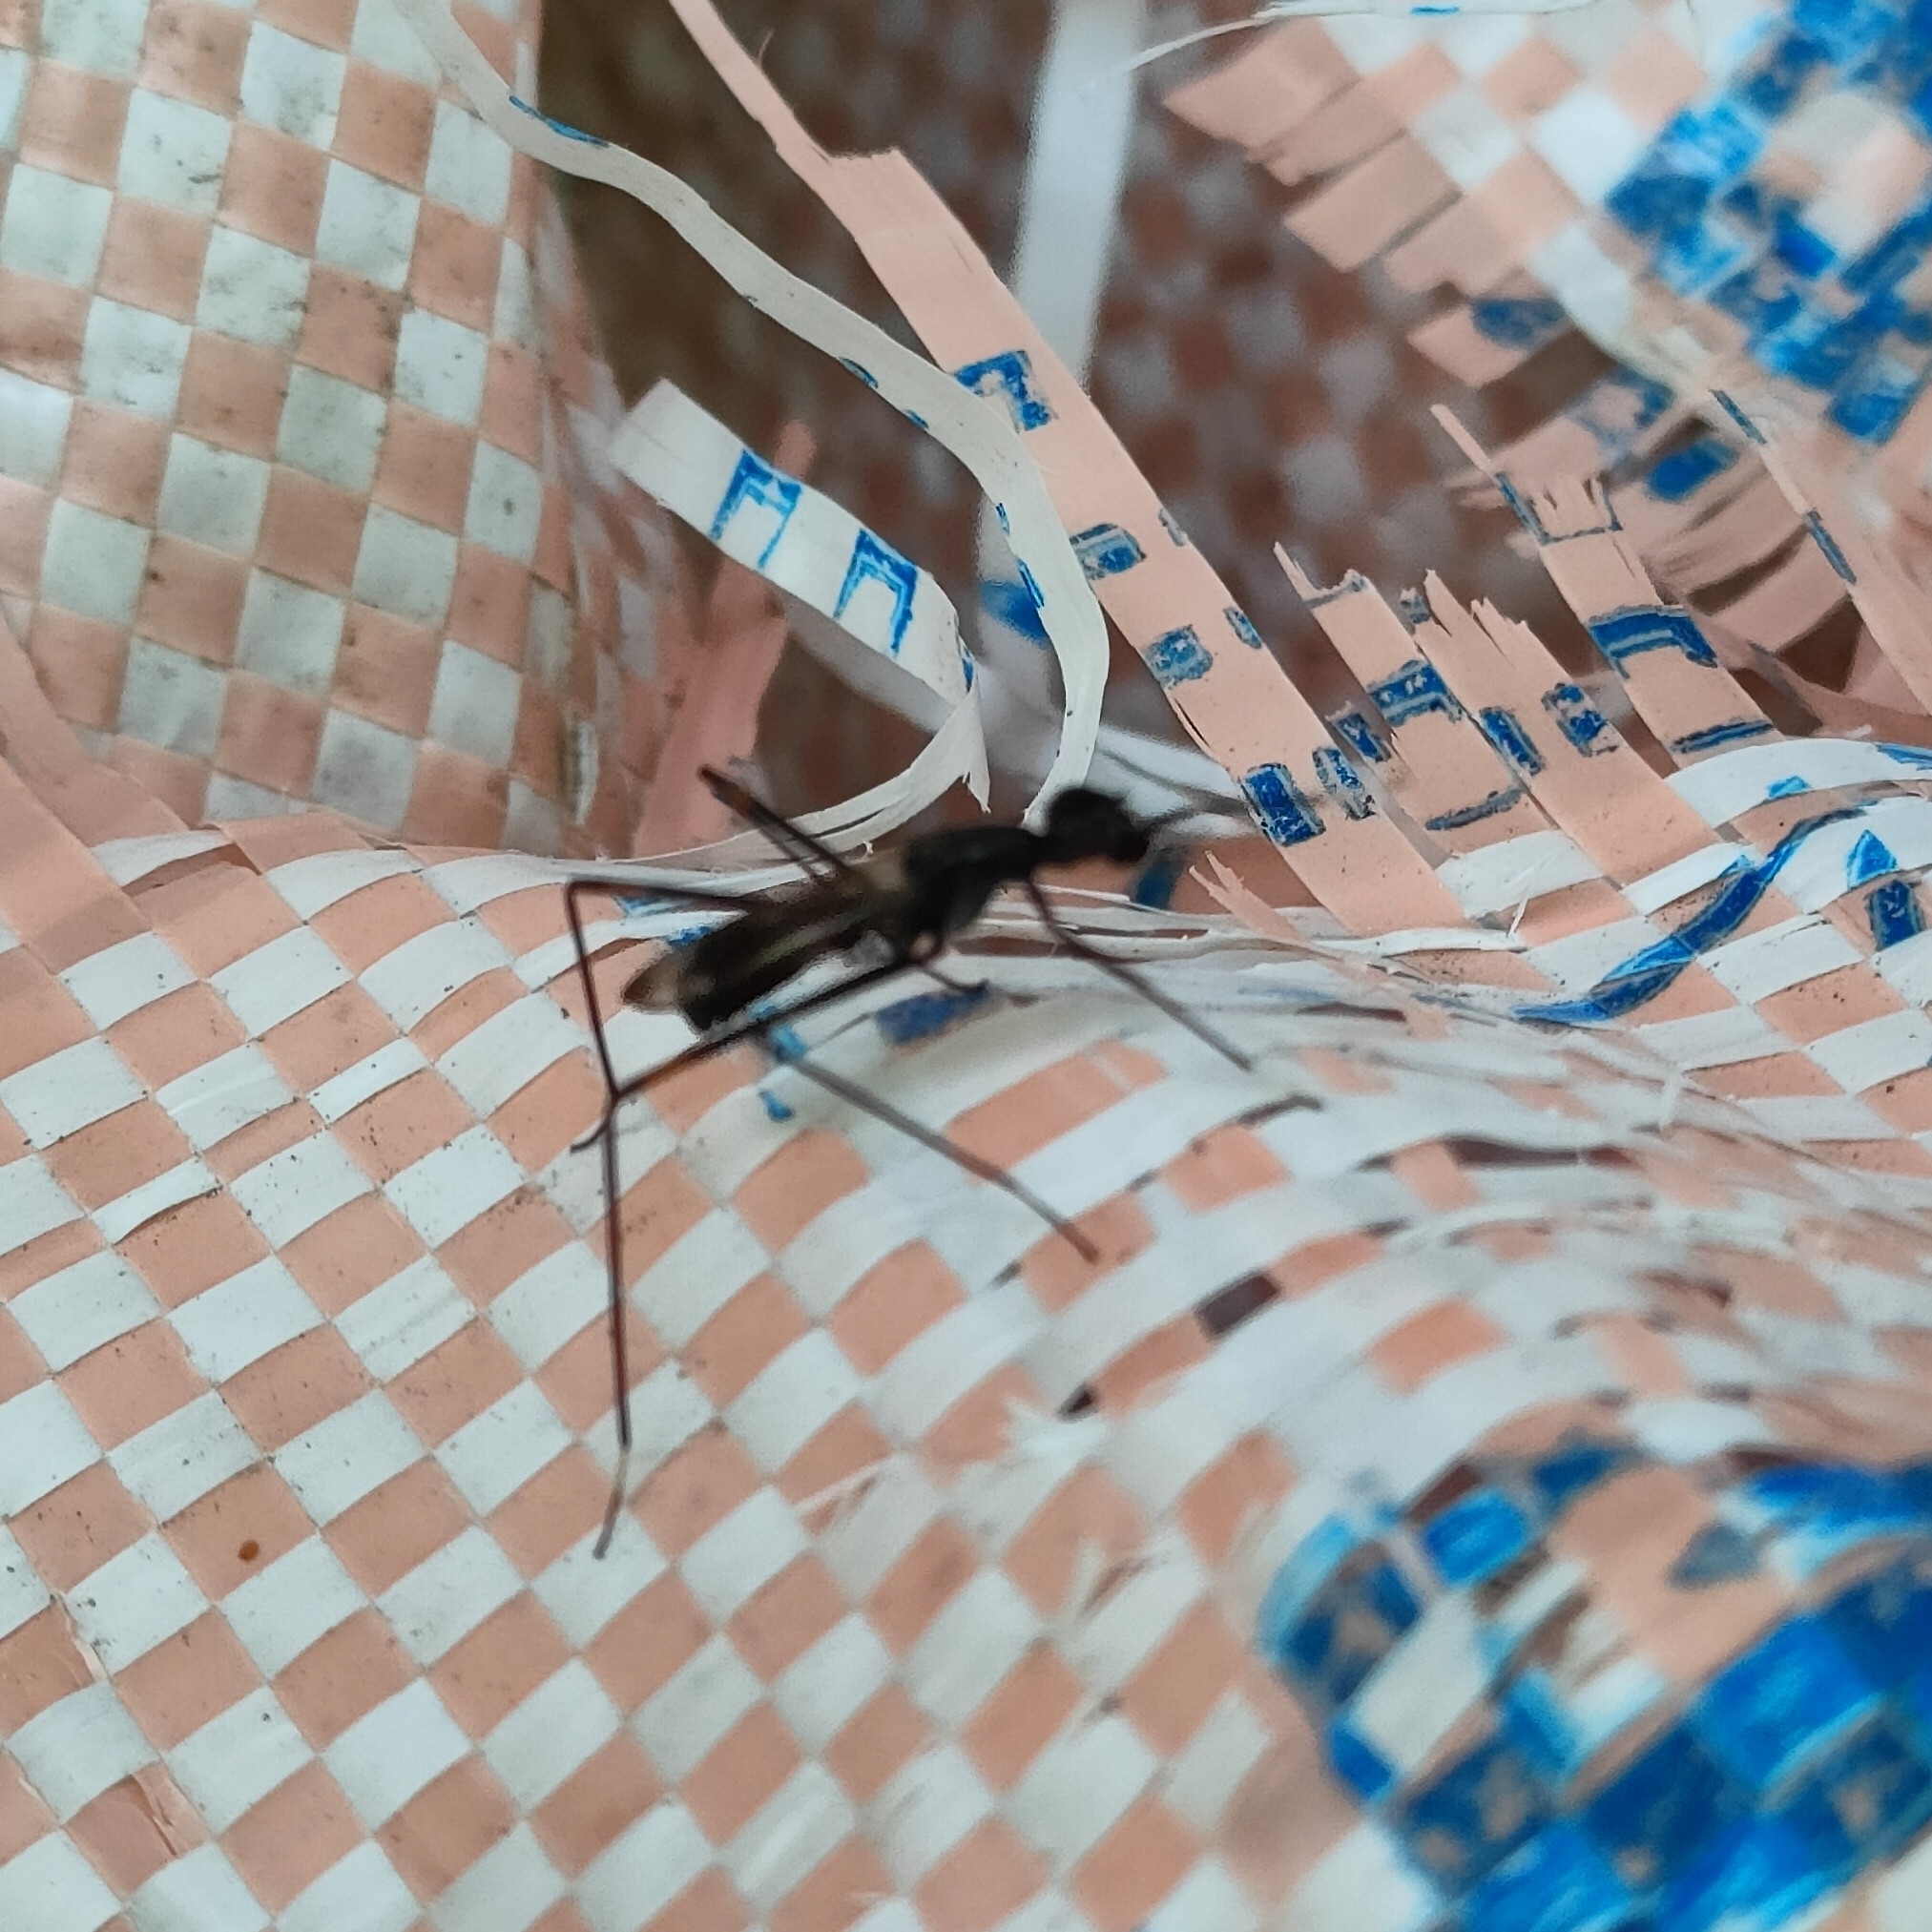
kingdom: Animalia
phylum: Arthropoda
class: Insecta
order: Diptera
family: Micropezidae
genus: Rainieria
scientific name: Rainieria calceata
